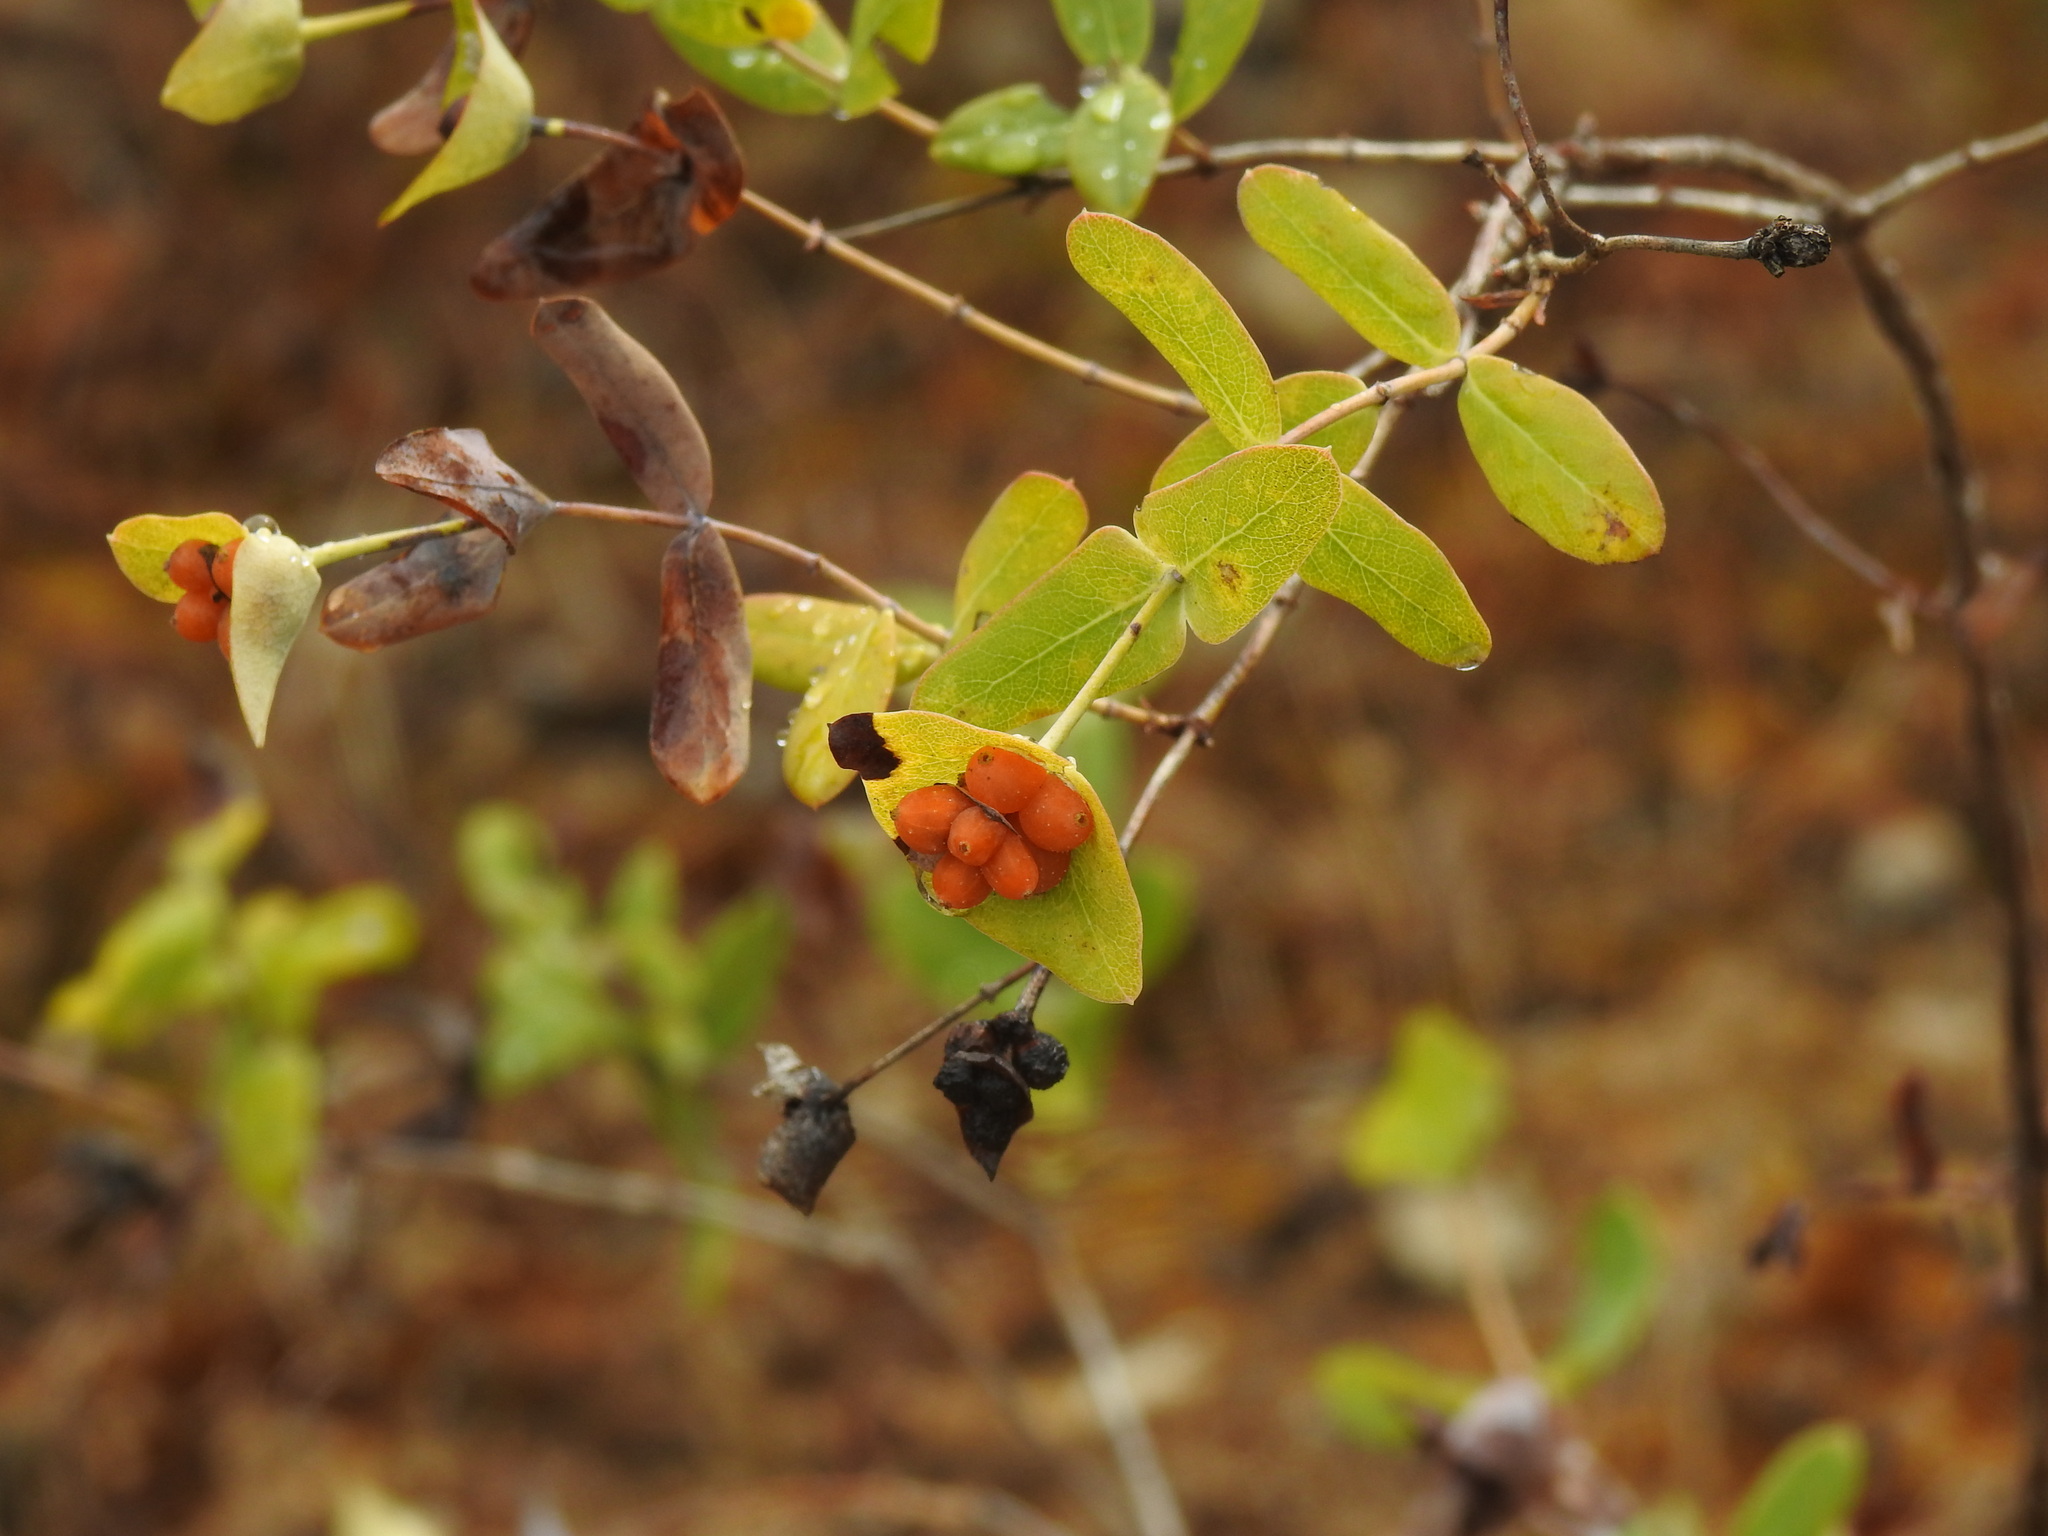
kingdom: Plantae
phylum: Tracheophyta
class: Magnoliopsida
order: Dipsacales
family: Caprifoliaceae
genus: Lonicera
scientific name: Lonicera implexa
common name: Minorca honeysuckle
